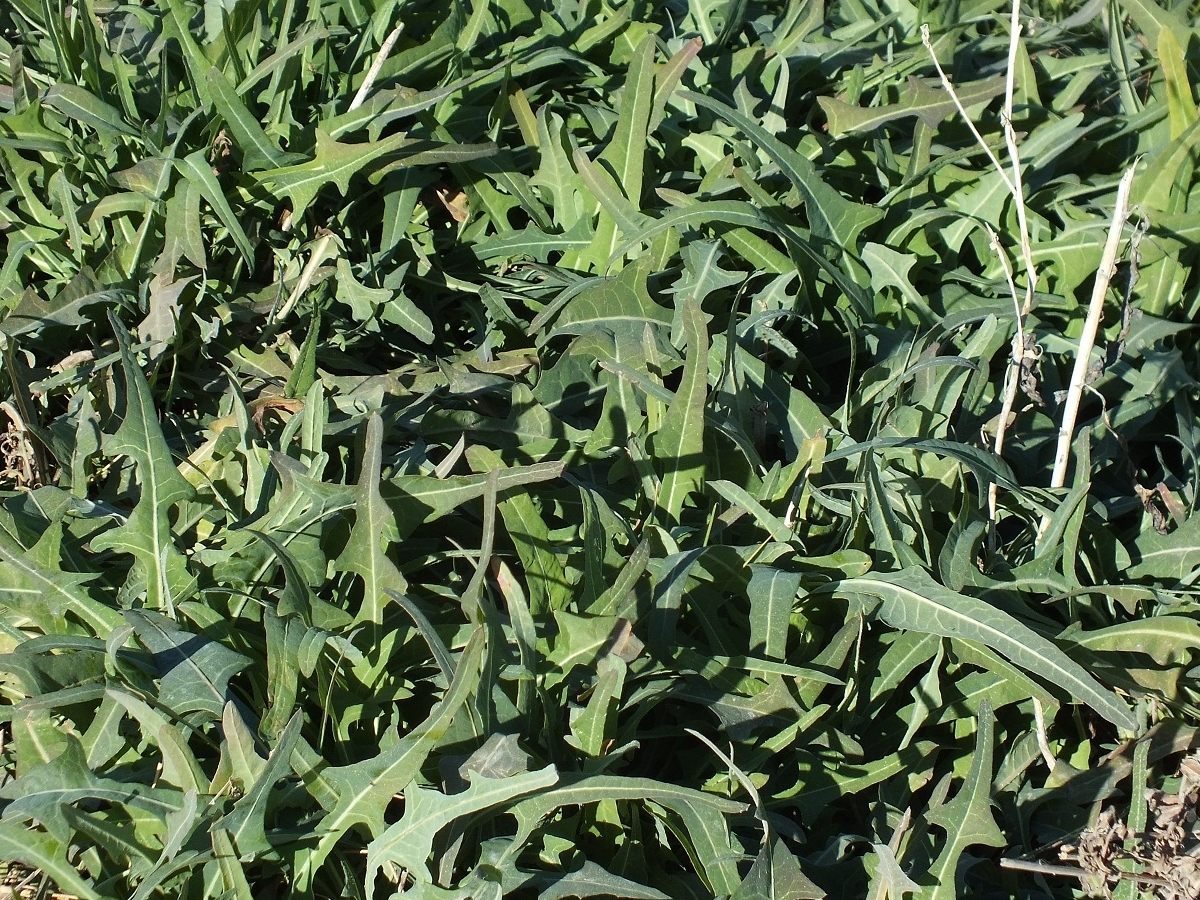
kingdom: Plantae
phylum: Tracheophyta
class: Magnoliopsida
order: Asterales
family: Asteraceae
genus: Lactuca
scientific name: Lactuca tatarica
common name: Blue lettuce
